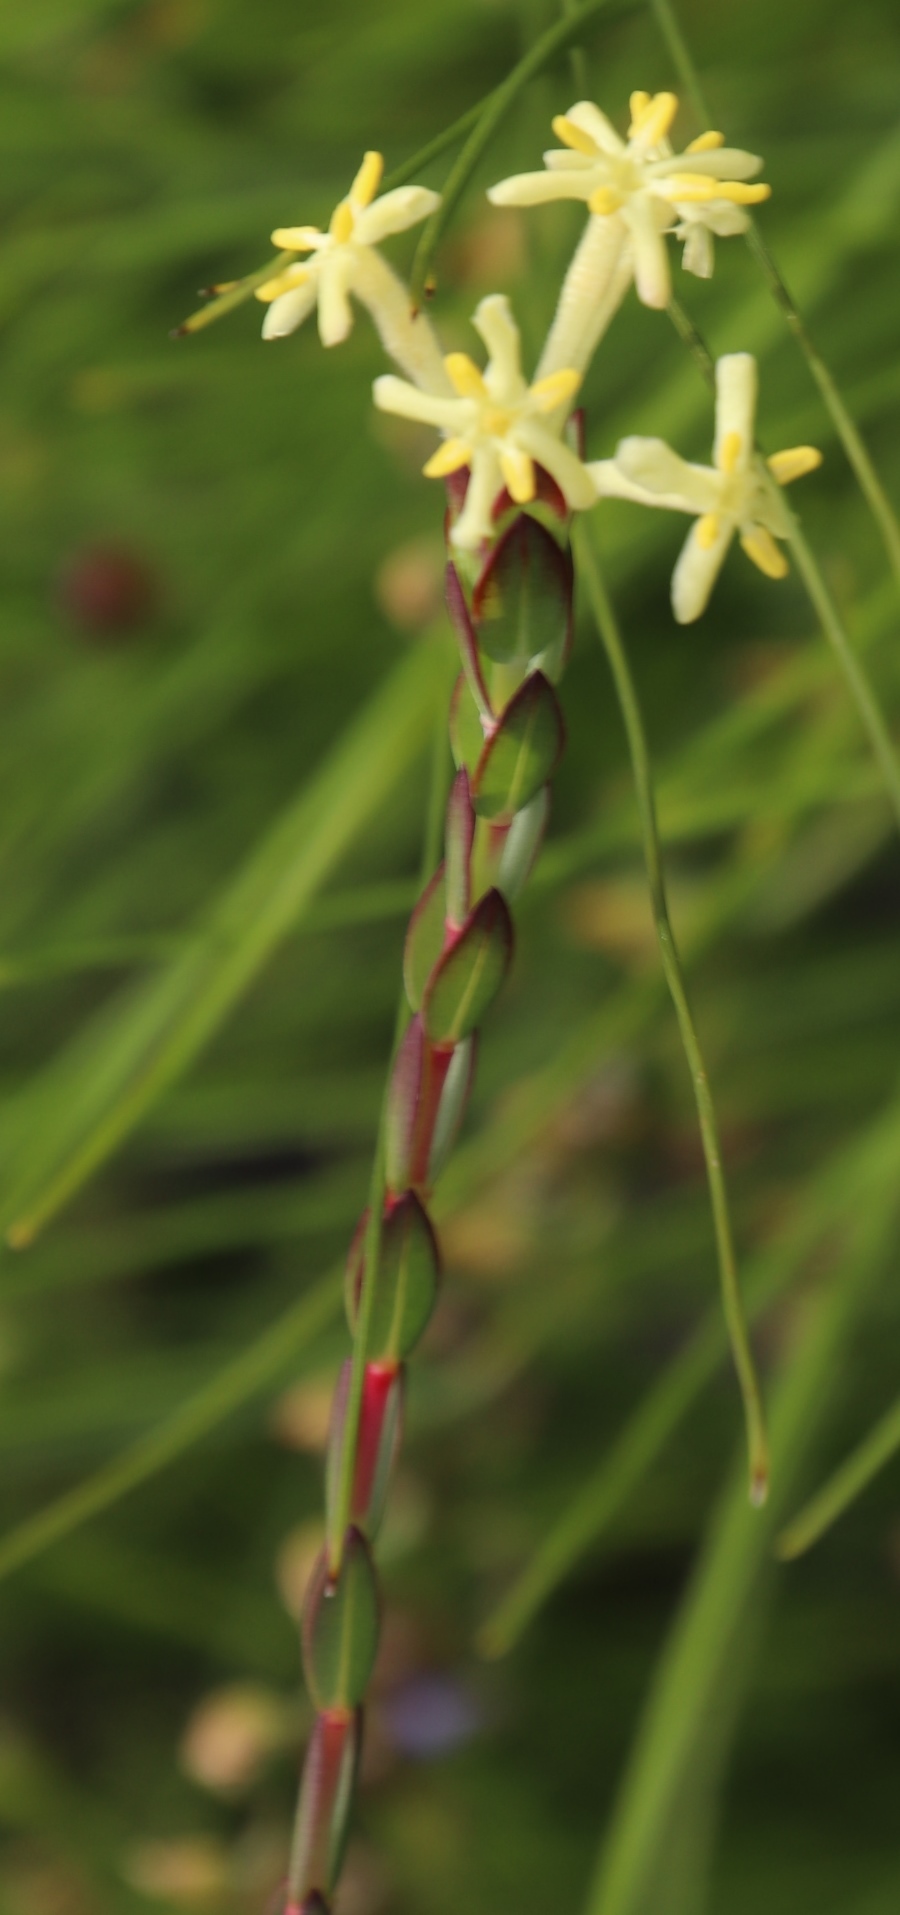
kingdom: Plantae
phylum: Tracheophyta
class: Magnoliopsida
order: Malvales
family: Thymelaeaceae
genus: Gnidia
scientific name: Gnidia oppositifolia
